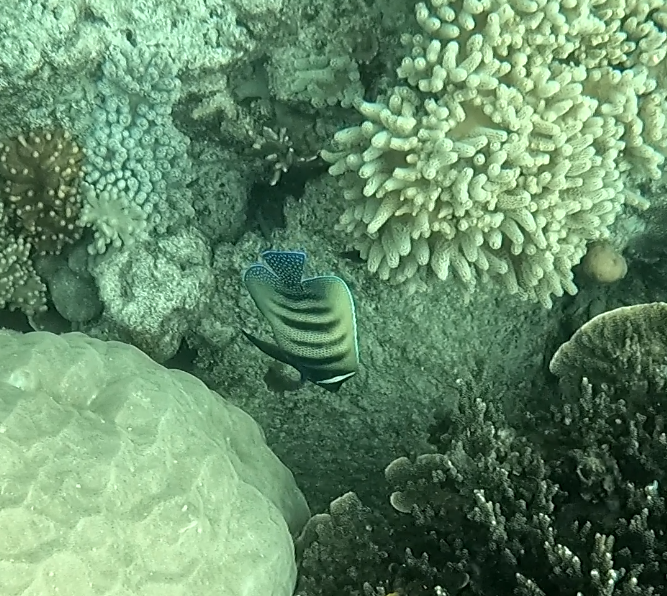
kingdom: Animalia
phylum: Chordata
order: Perciformes
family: Pomacanthidae
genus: Pomacanthus
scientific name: Pomacanthus sexstriatus
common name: Six-banded angelfish
